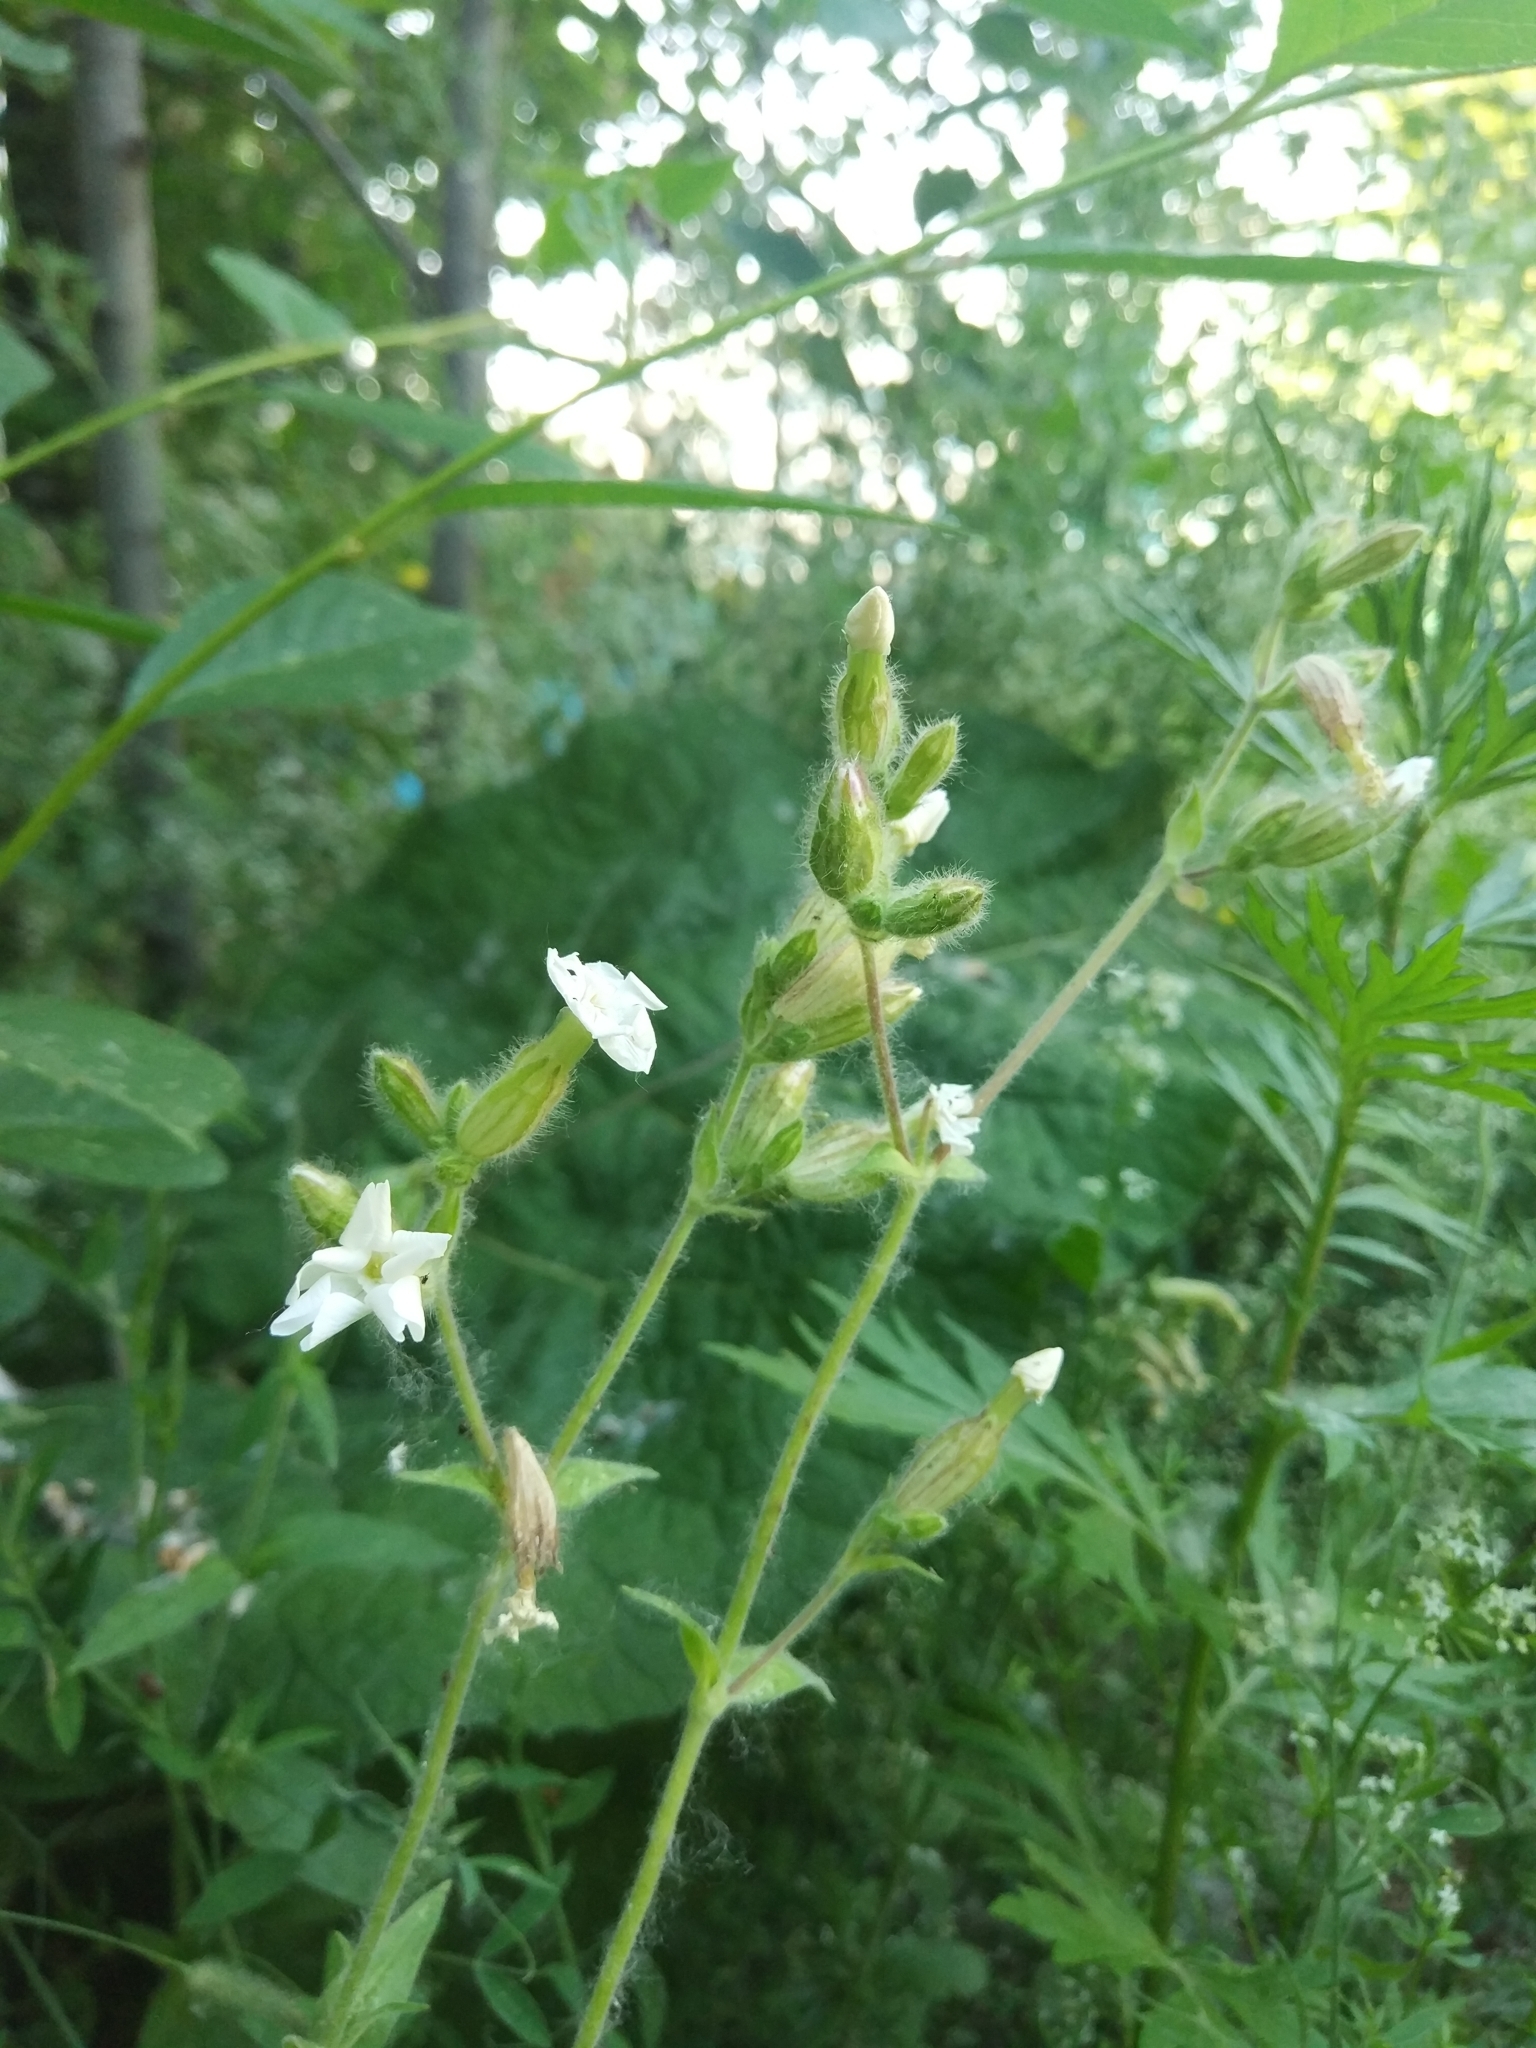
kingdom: Plantae
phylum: Tracheophyta
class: Magnoliopsida
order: Caryophyllales
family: Caryophyllaceae
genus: Silene
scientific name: Silene latifolia
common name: White campion
